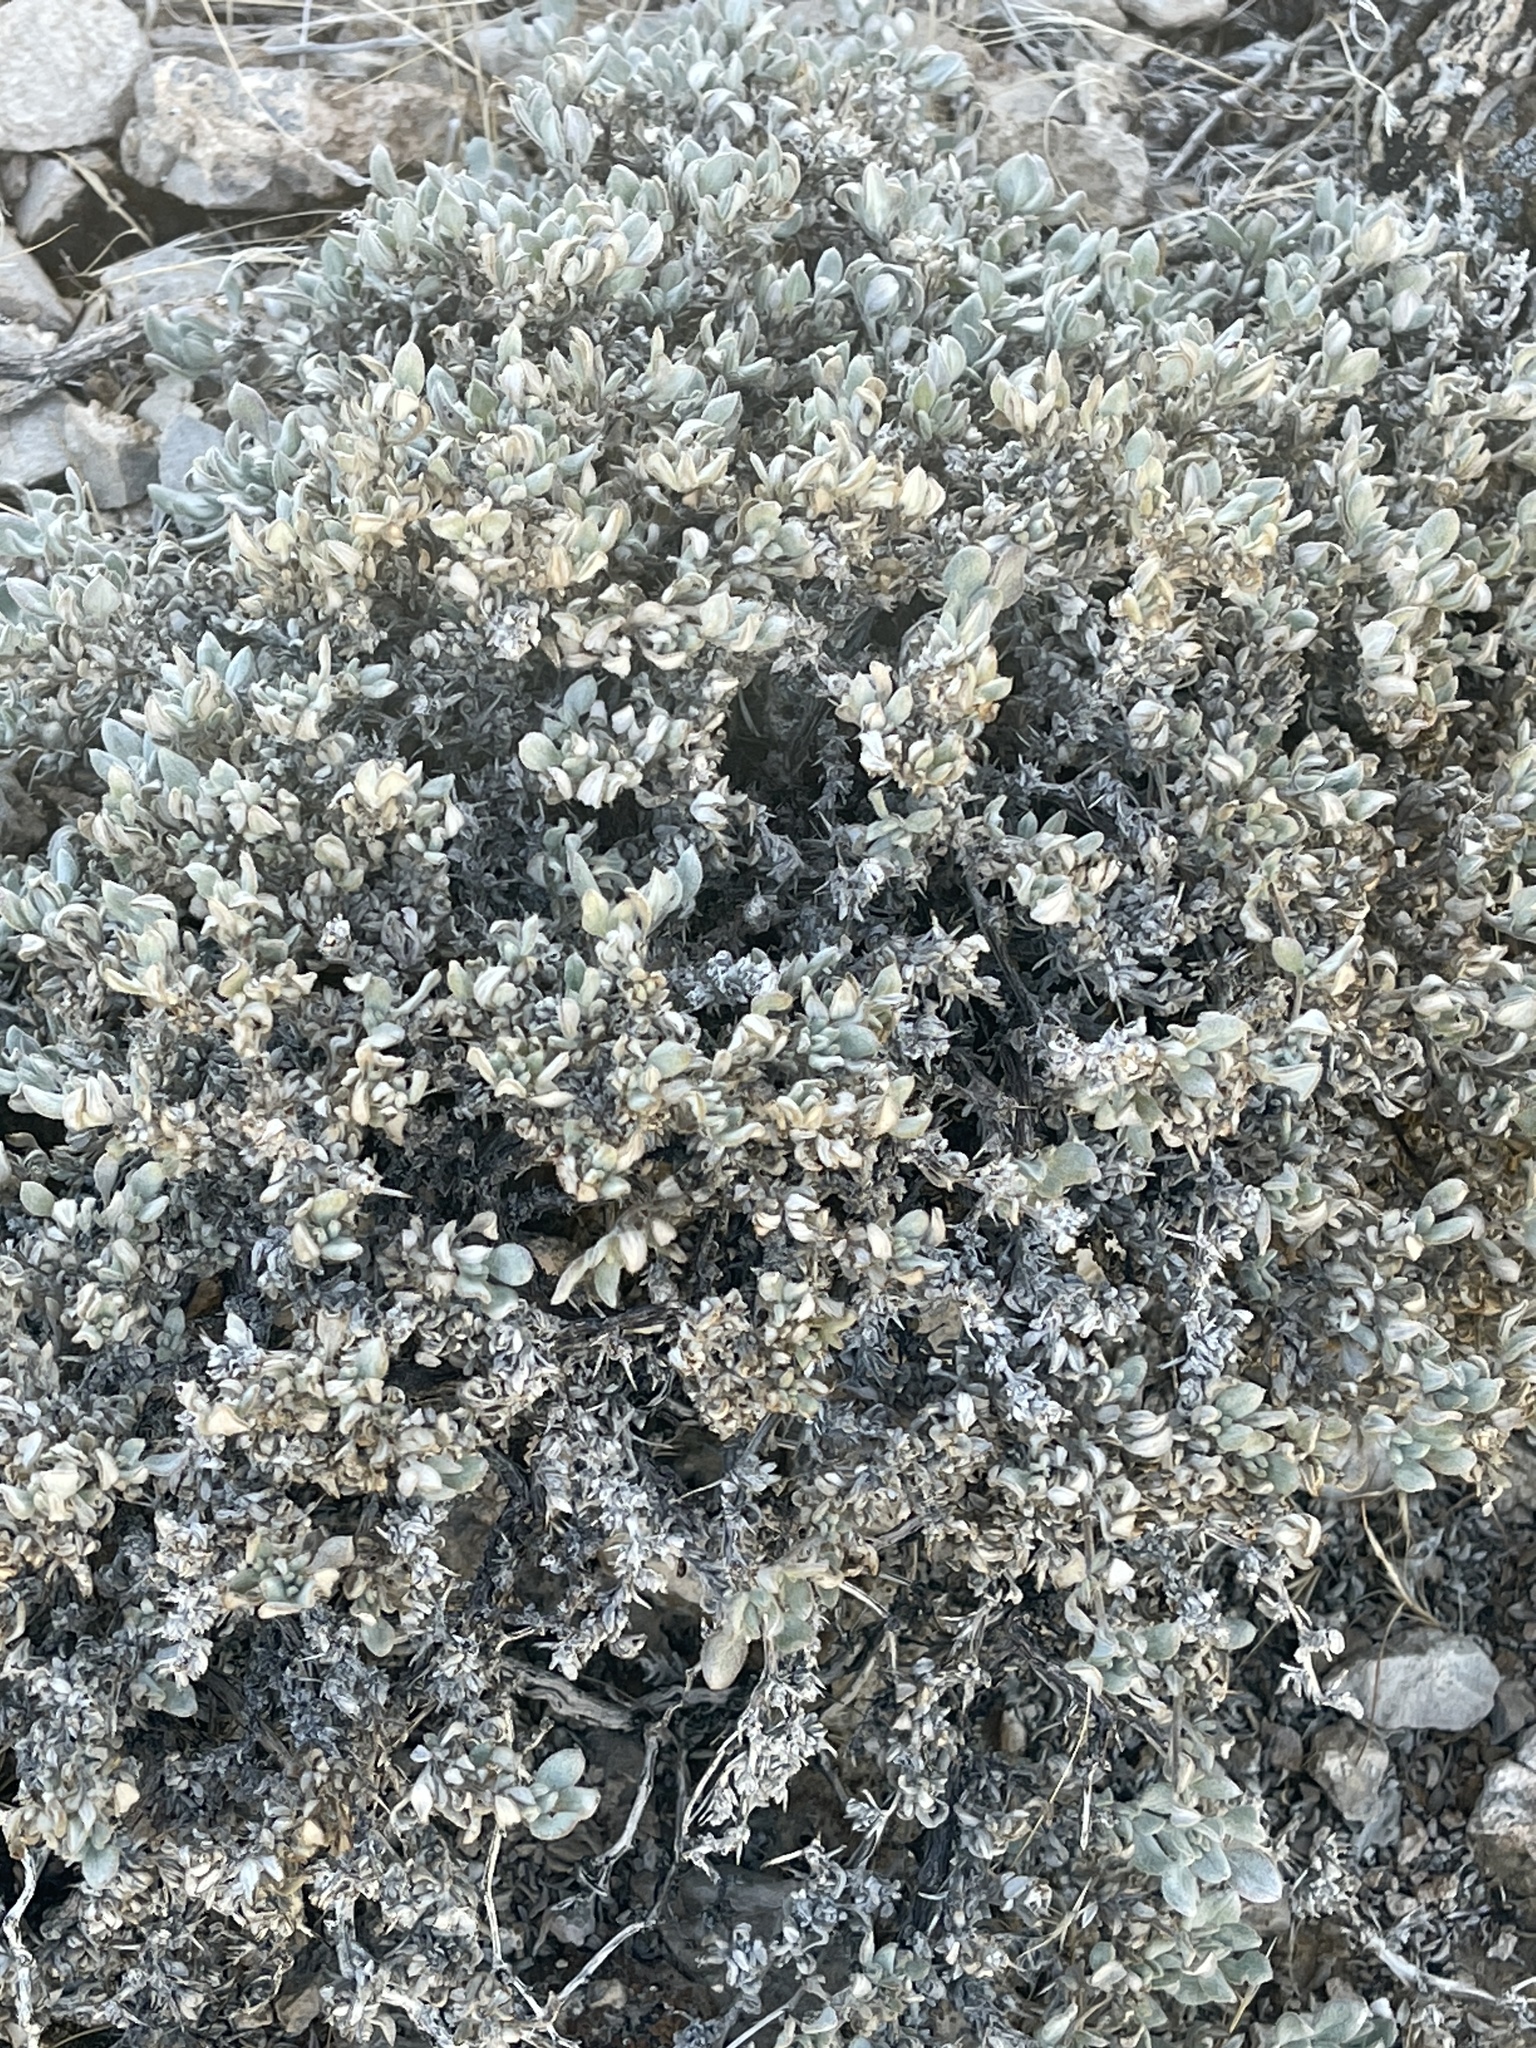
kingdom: Plantae
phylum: Tracheophyta
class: Magnoliopsida
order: Boraginales
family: Ehretiaceae
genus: Tiquilia
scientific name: Tiquilia canescens
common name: Hairy tiquilia
